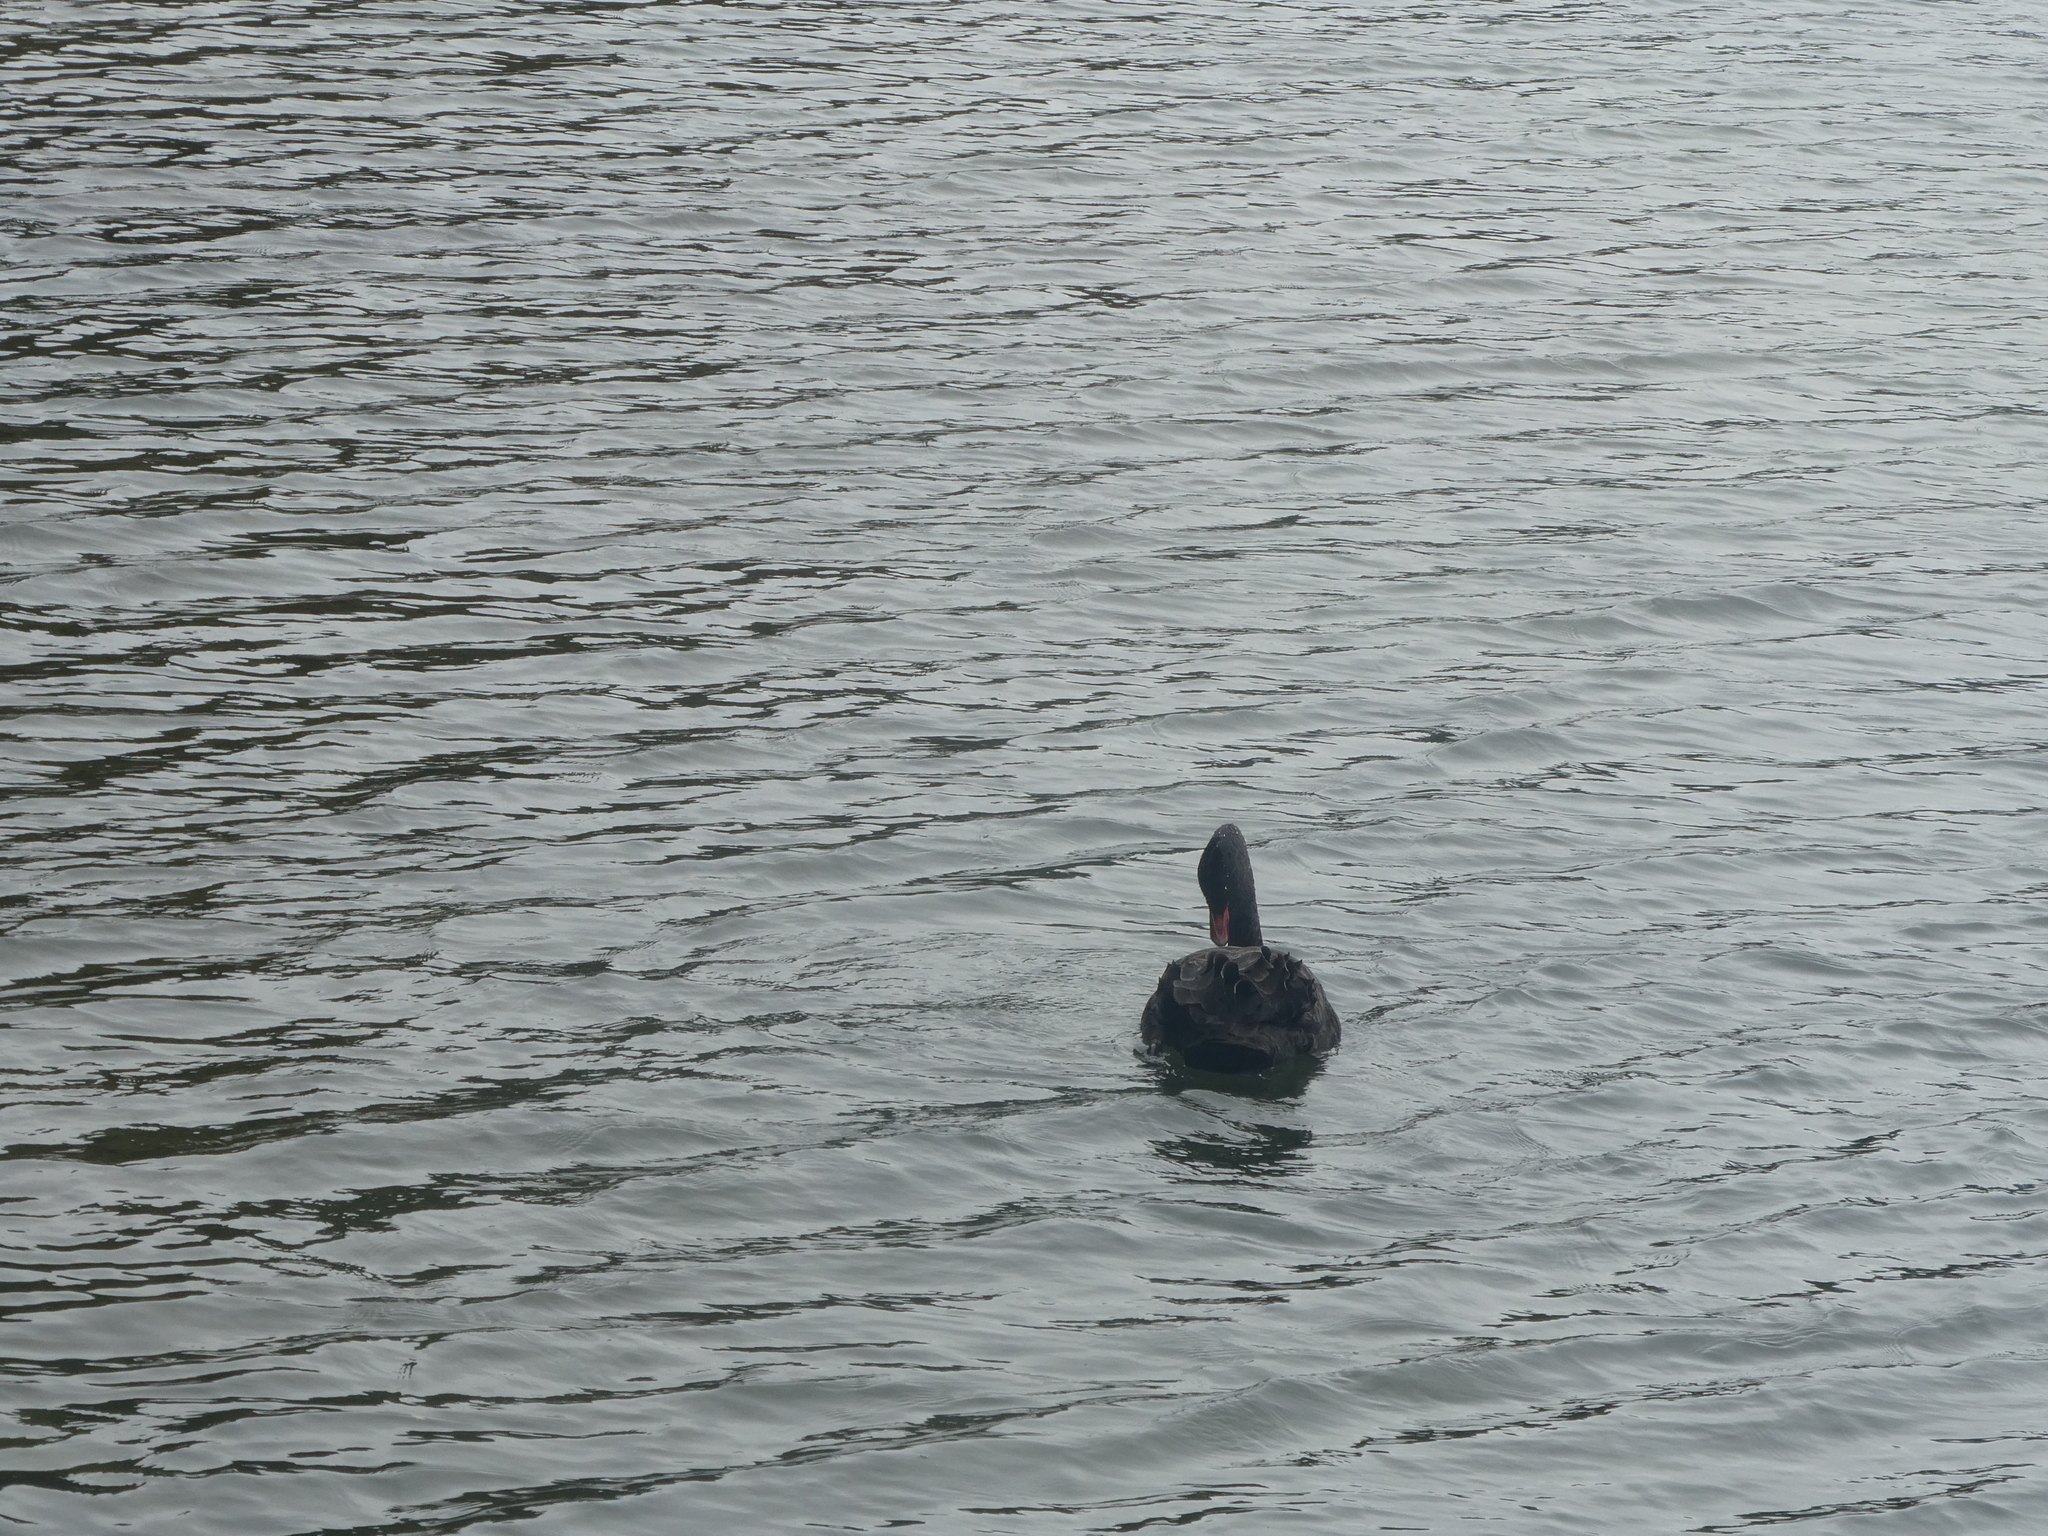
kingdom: Animalia
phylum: Chordata
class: Aves
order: Anseriformes
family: Anatidae
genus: Cygnus
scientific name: Cygnus atratus
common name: Black swan
